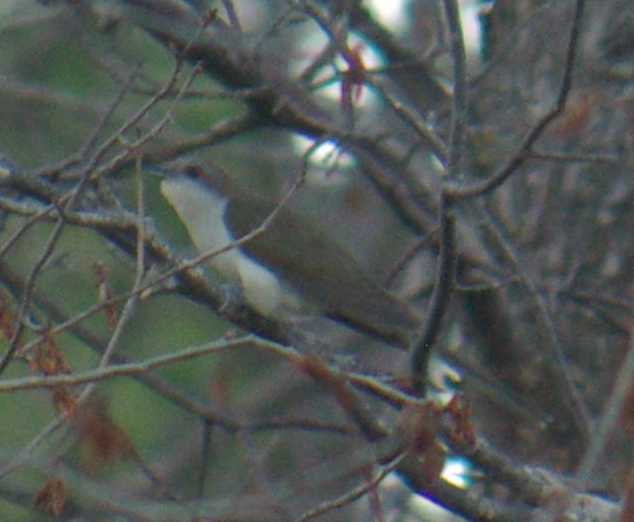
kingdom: Animalia
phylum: Chordata
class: Aves
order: Cuculiformes
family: Cuculidae
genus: Coccyzus
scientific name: Coccyzus erythropthalmus
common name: Black-billed cuckoo
